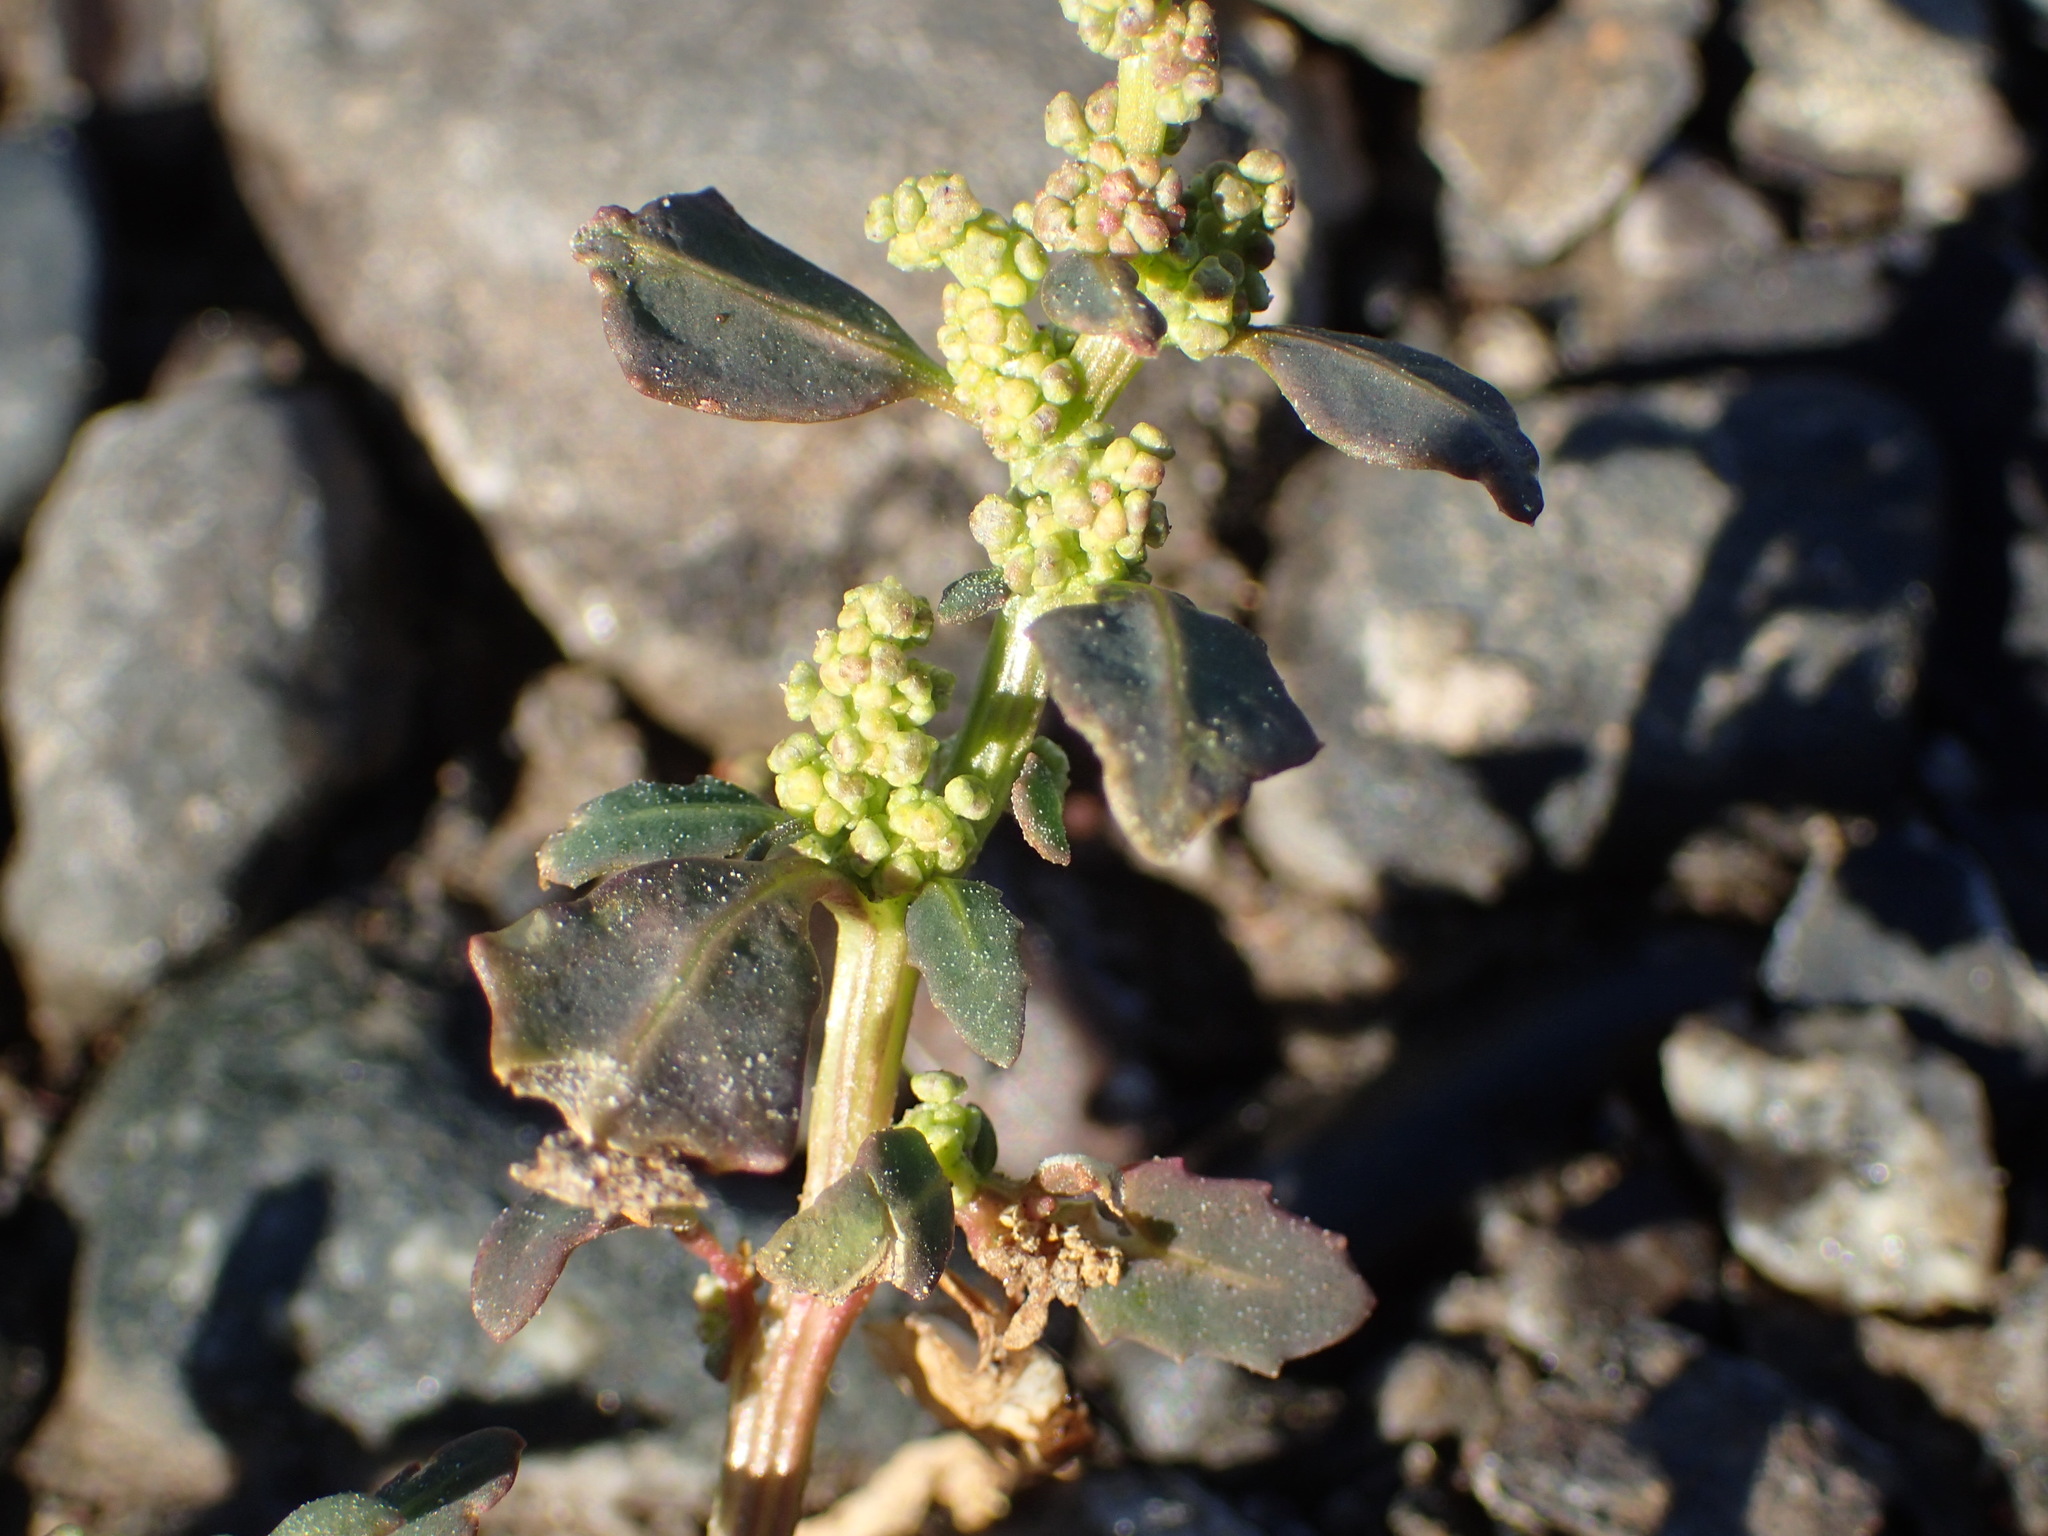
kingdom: Plantae
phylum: Tracheophyta
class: Magnoliopsida
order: Caryophyllales
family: Amaranthaceae
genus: Oxybasis
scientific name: Oxybasis glauca
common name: Glaucous goosefoot
